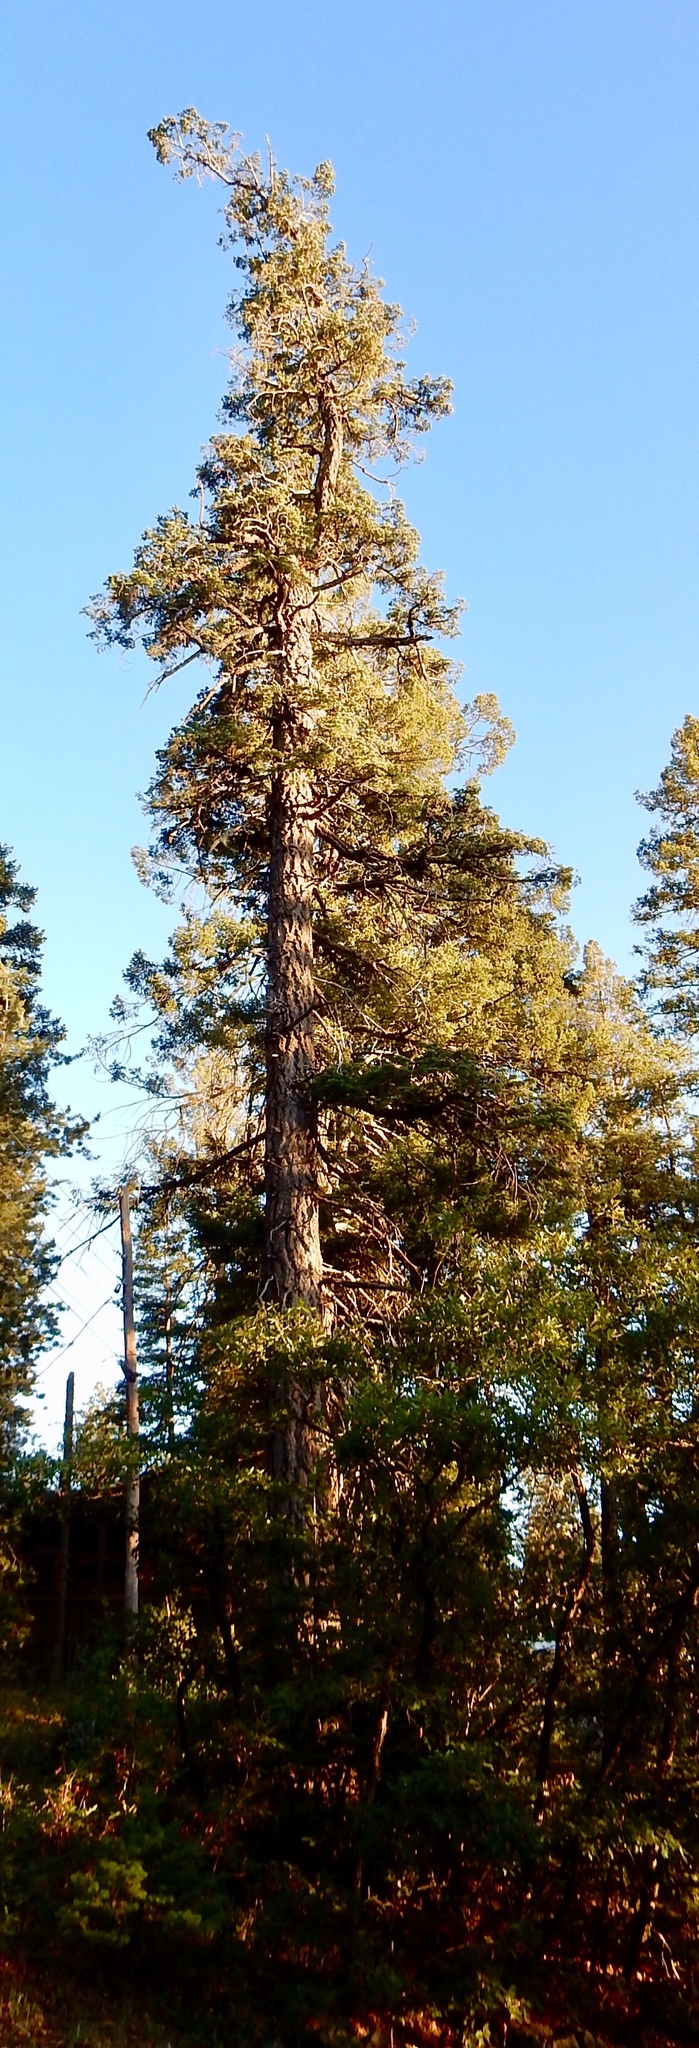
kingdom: Plantae
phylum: Tracheophyta
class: Pinopsida
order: Pinales
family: Pinaceae
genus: Pseudotsuga
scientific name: Pseudotsuga menziesii
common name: Douglas fir
